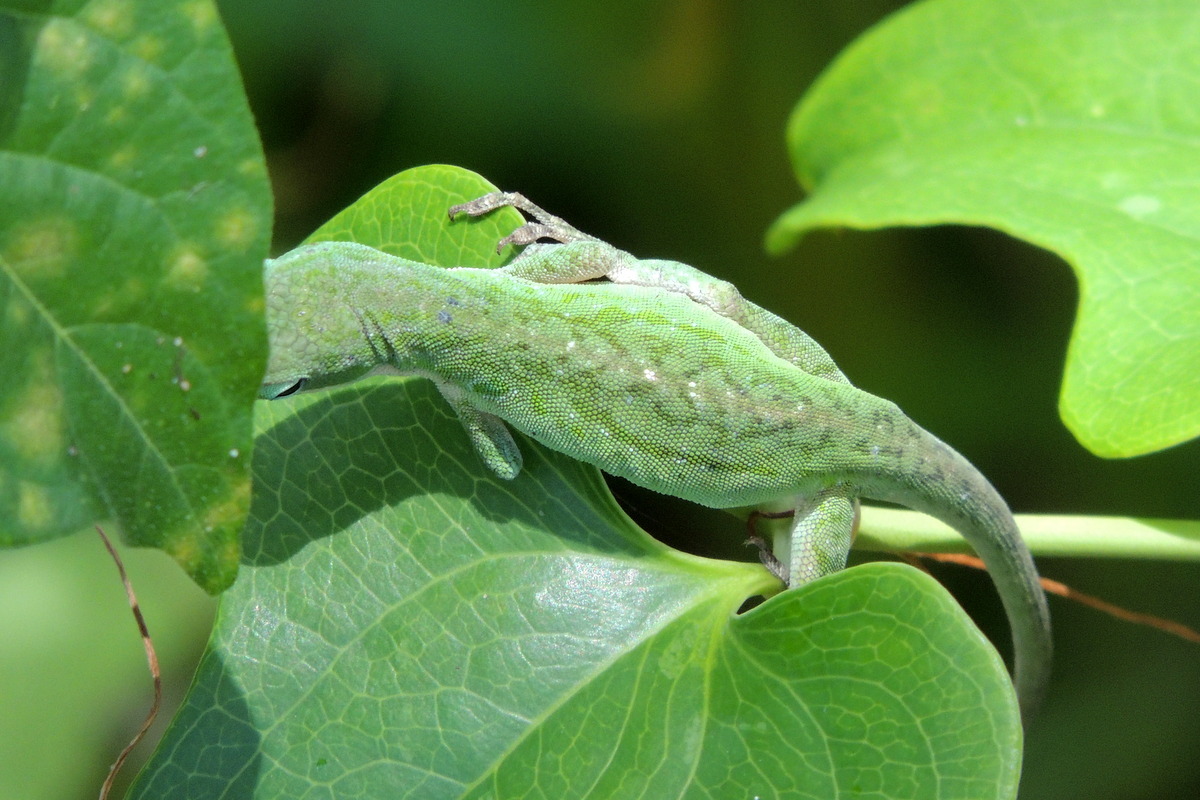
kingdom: Animalia
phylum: Chordata
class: Squamata
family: Dactyloidae
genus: Anolis
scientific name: Anolis carolinensis
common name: Green anole
